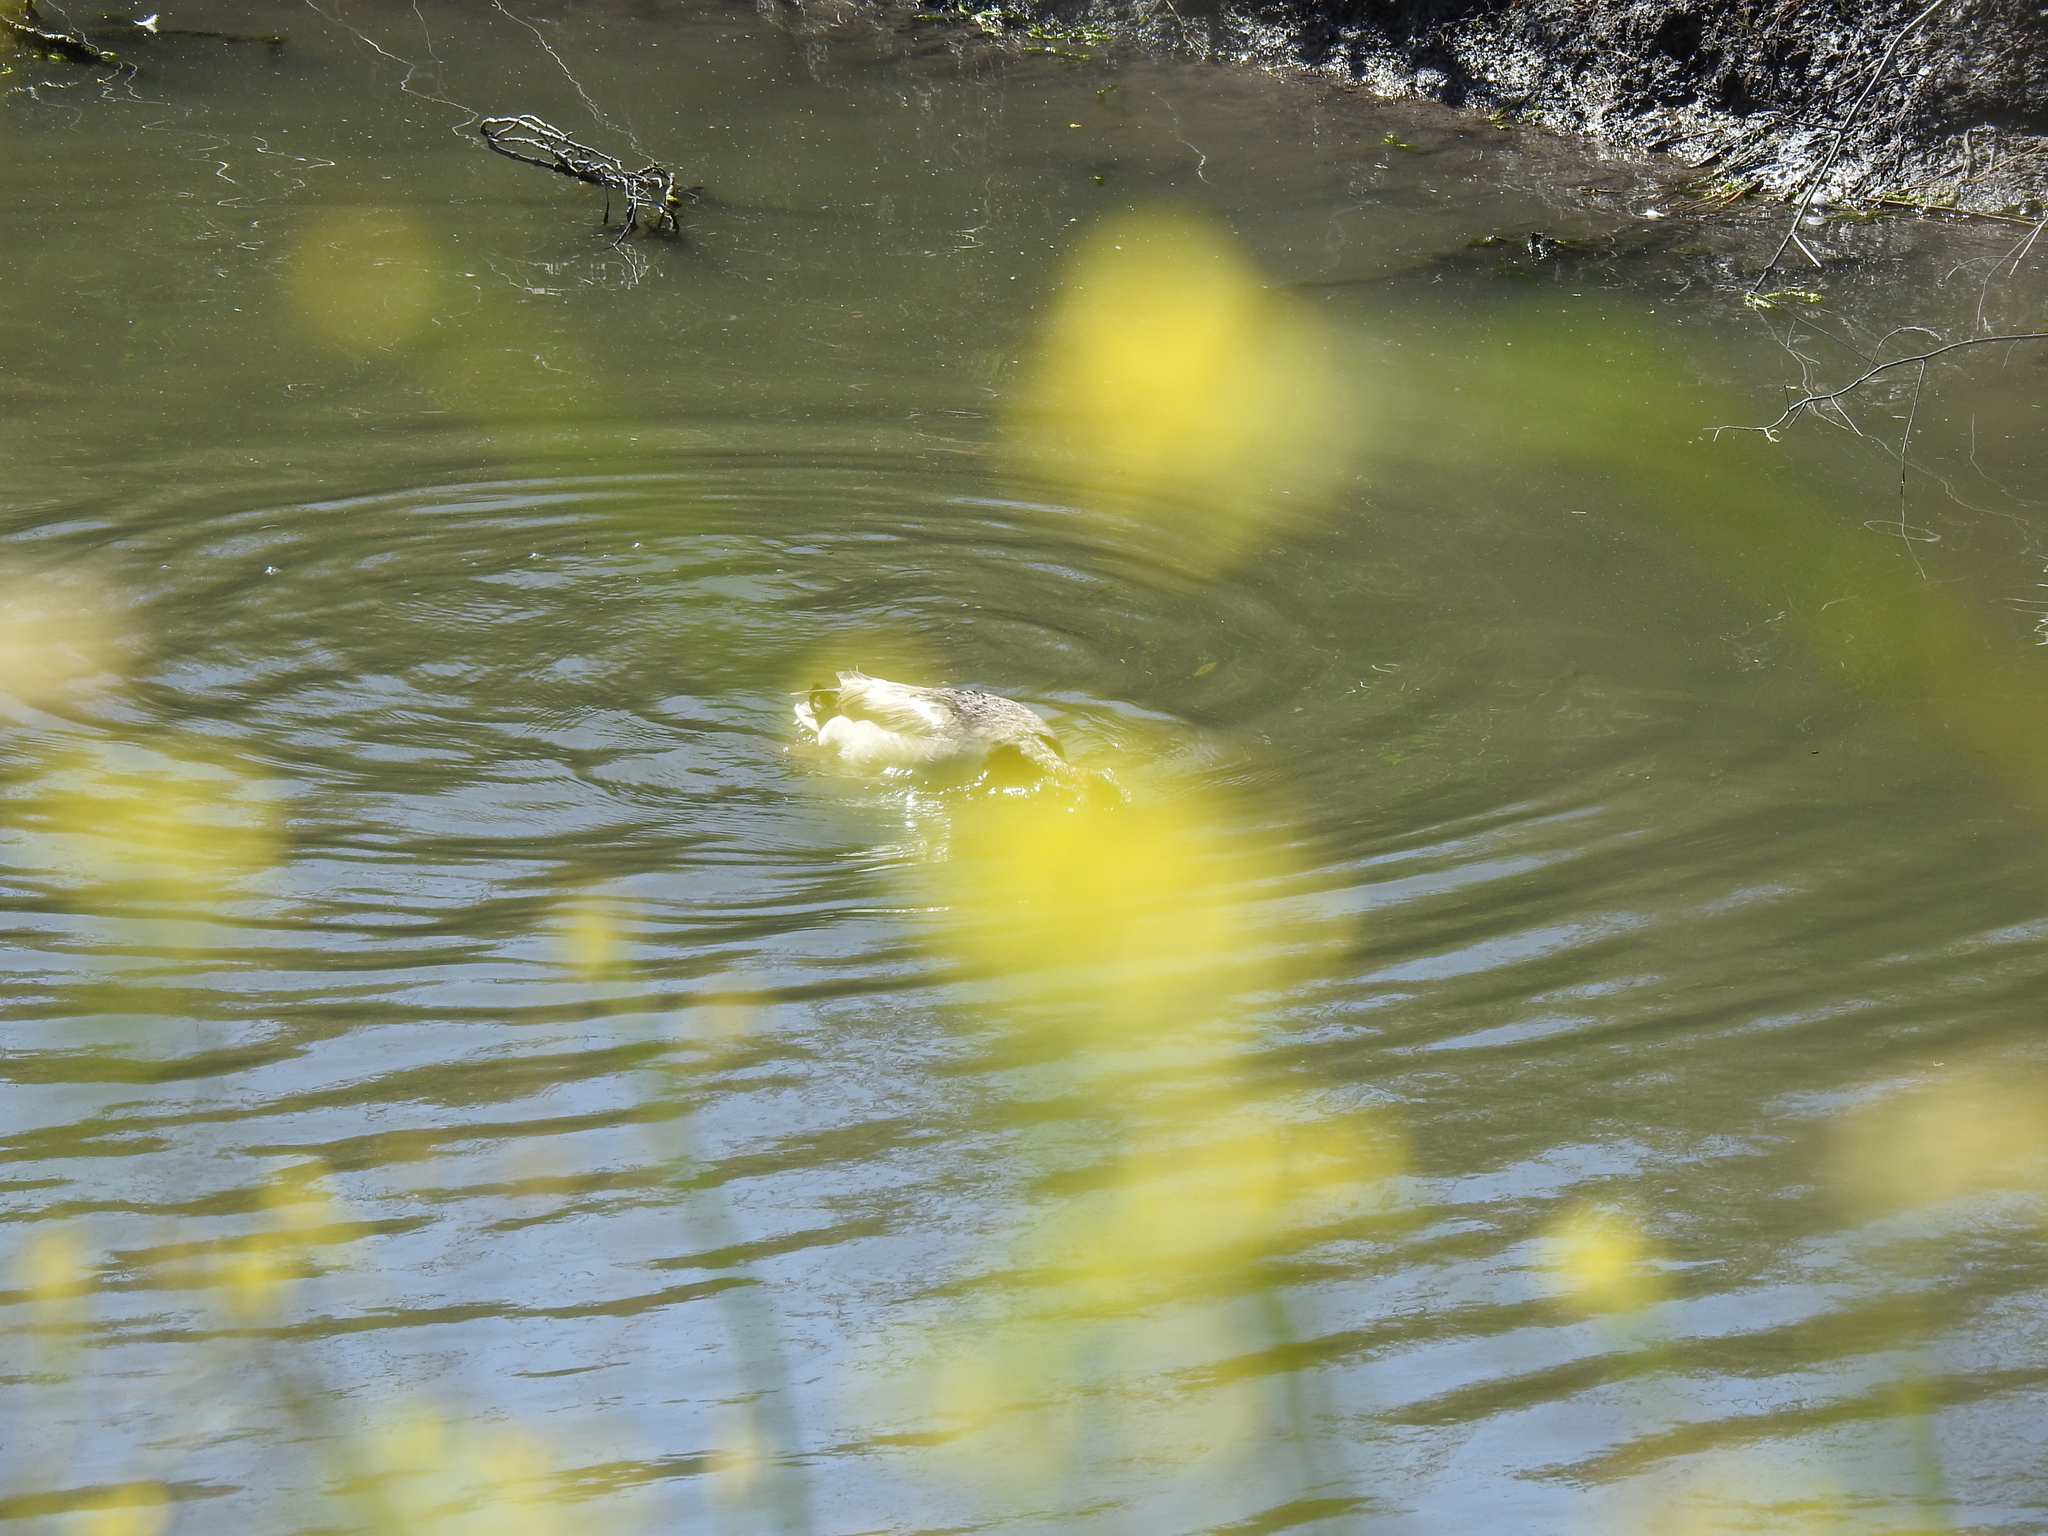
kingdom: Animalia
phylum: Chordata
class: Aves
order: Anseriformes
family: Anatidae
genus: Anas
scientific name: Anas platyrhynchos
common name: Mallard
